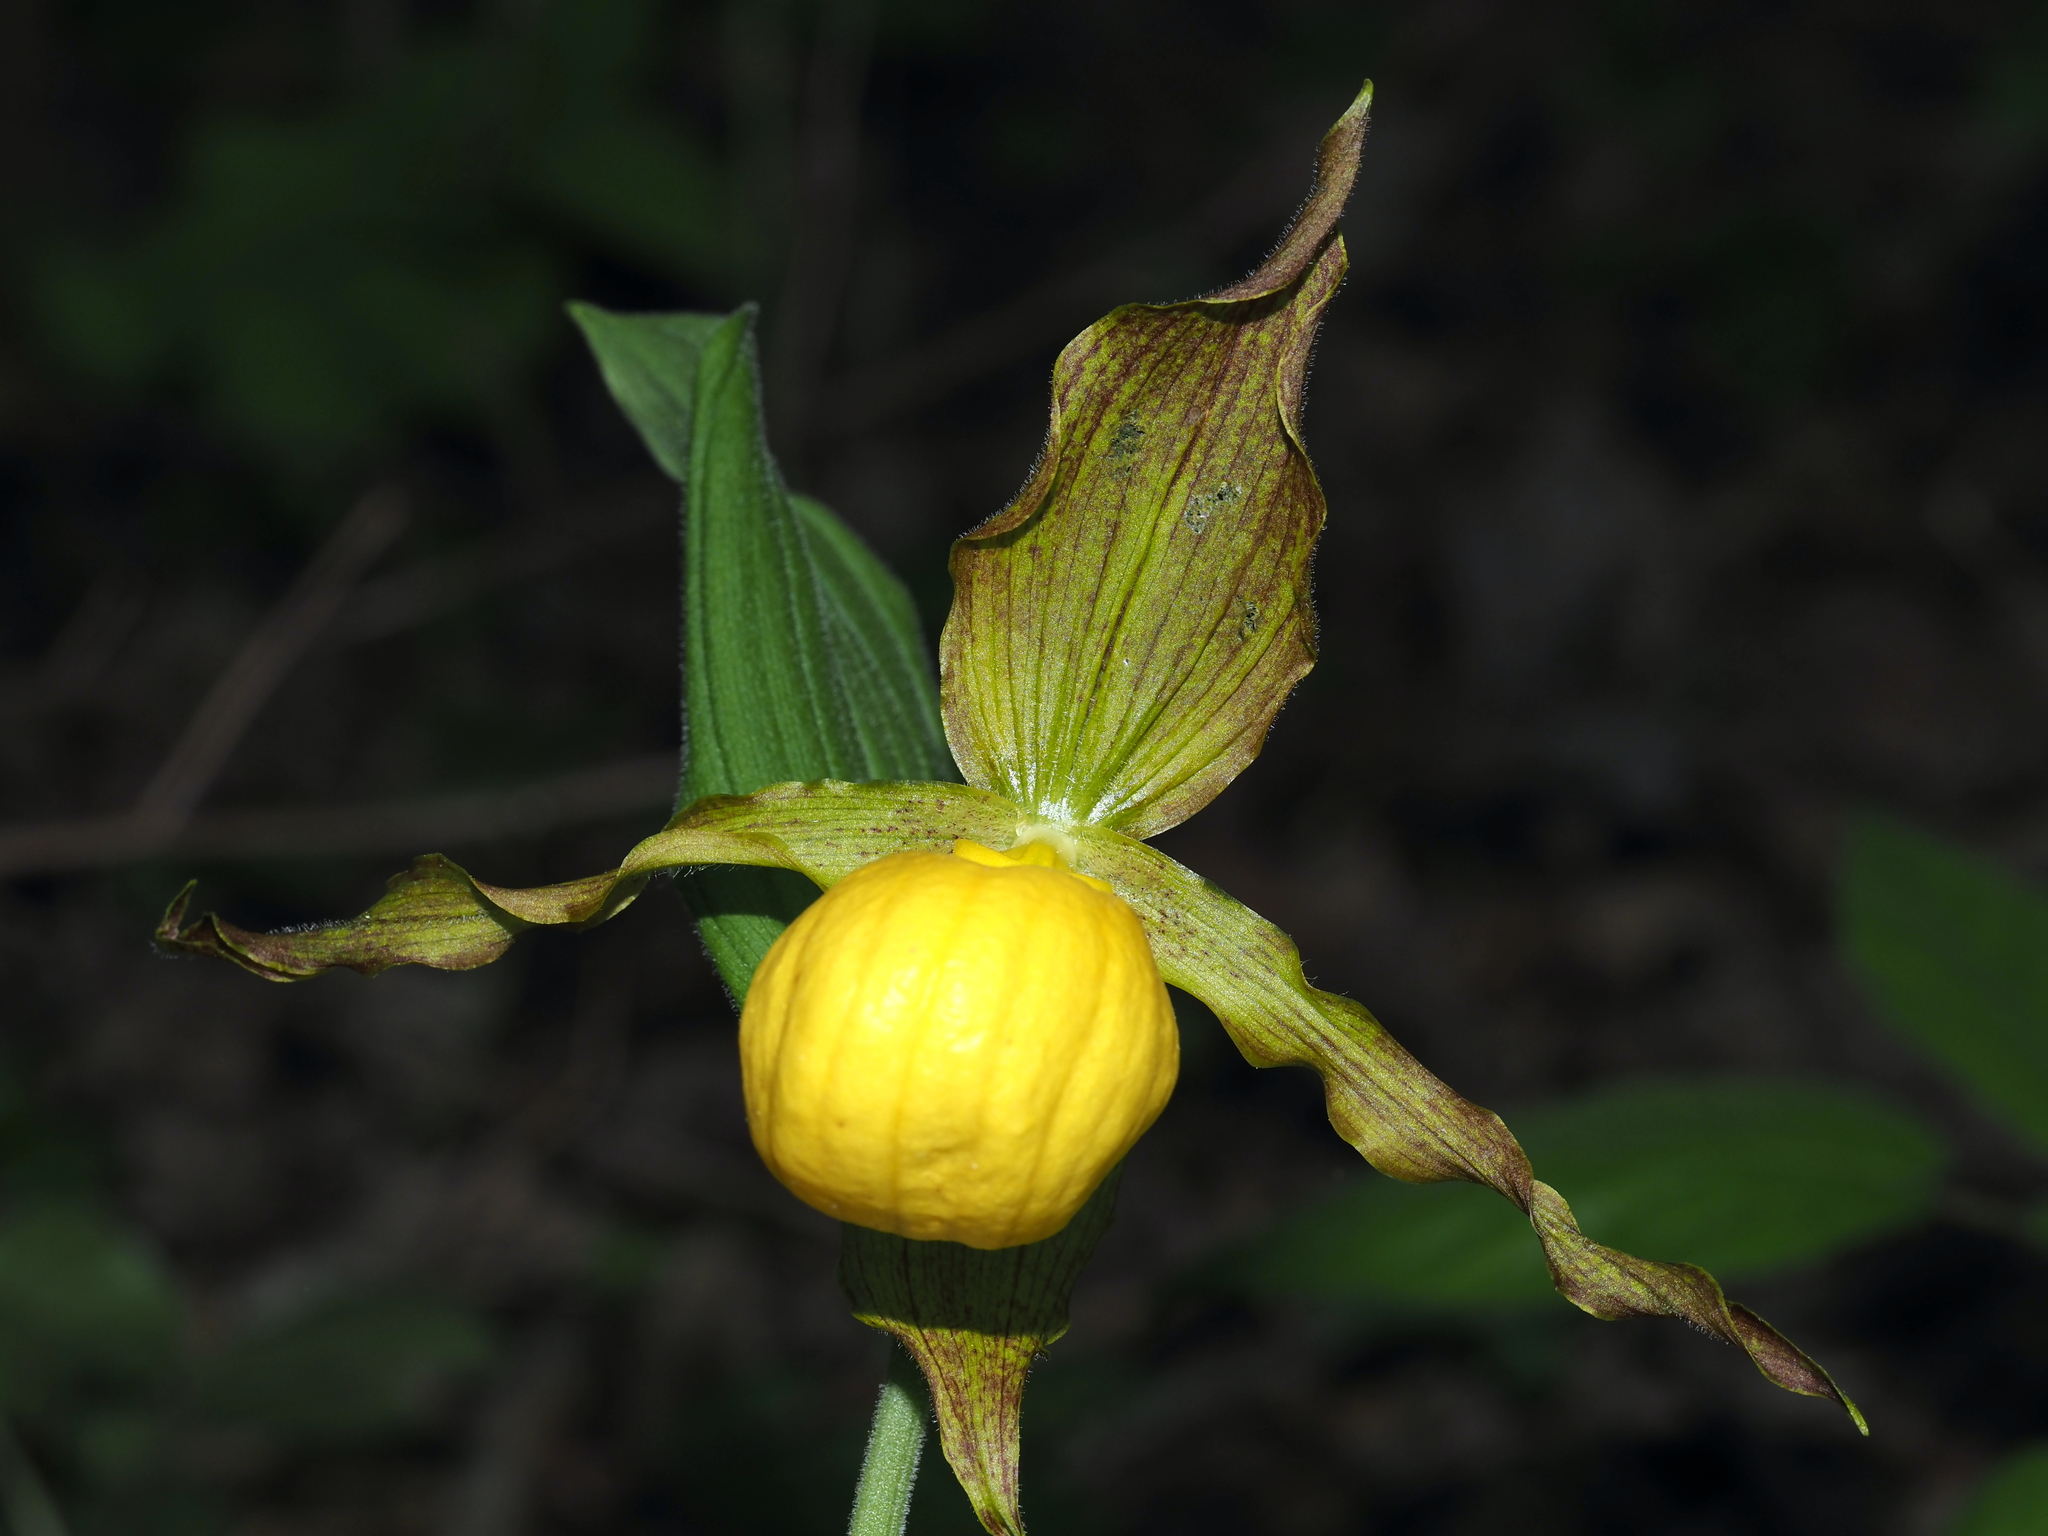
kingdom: Plantae
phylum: Tracheophyta
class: Liliopsida
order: Asparagales
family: Orchidaceae
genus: Cypripedium
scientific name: Cypripedium parviflorum
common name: American yellow lady's-slipper
